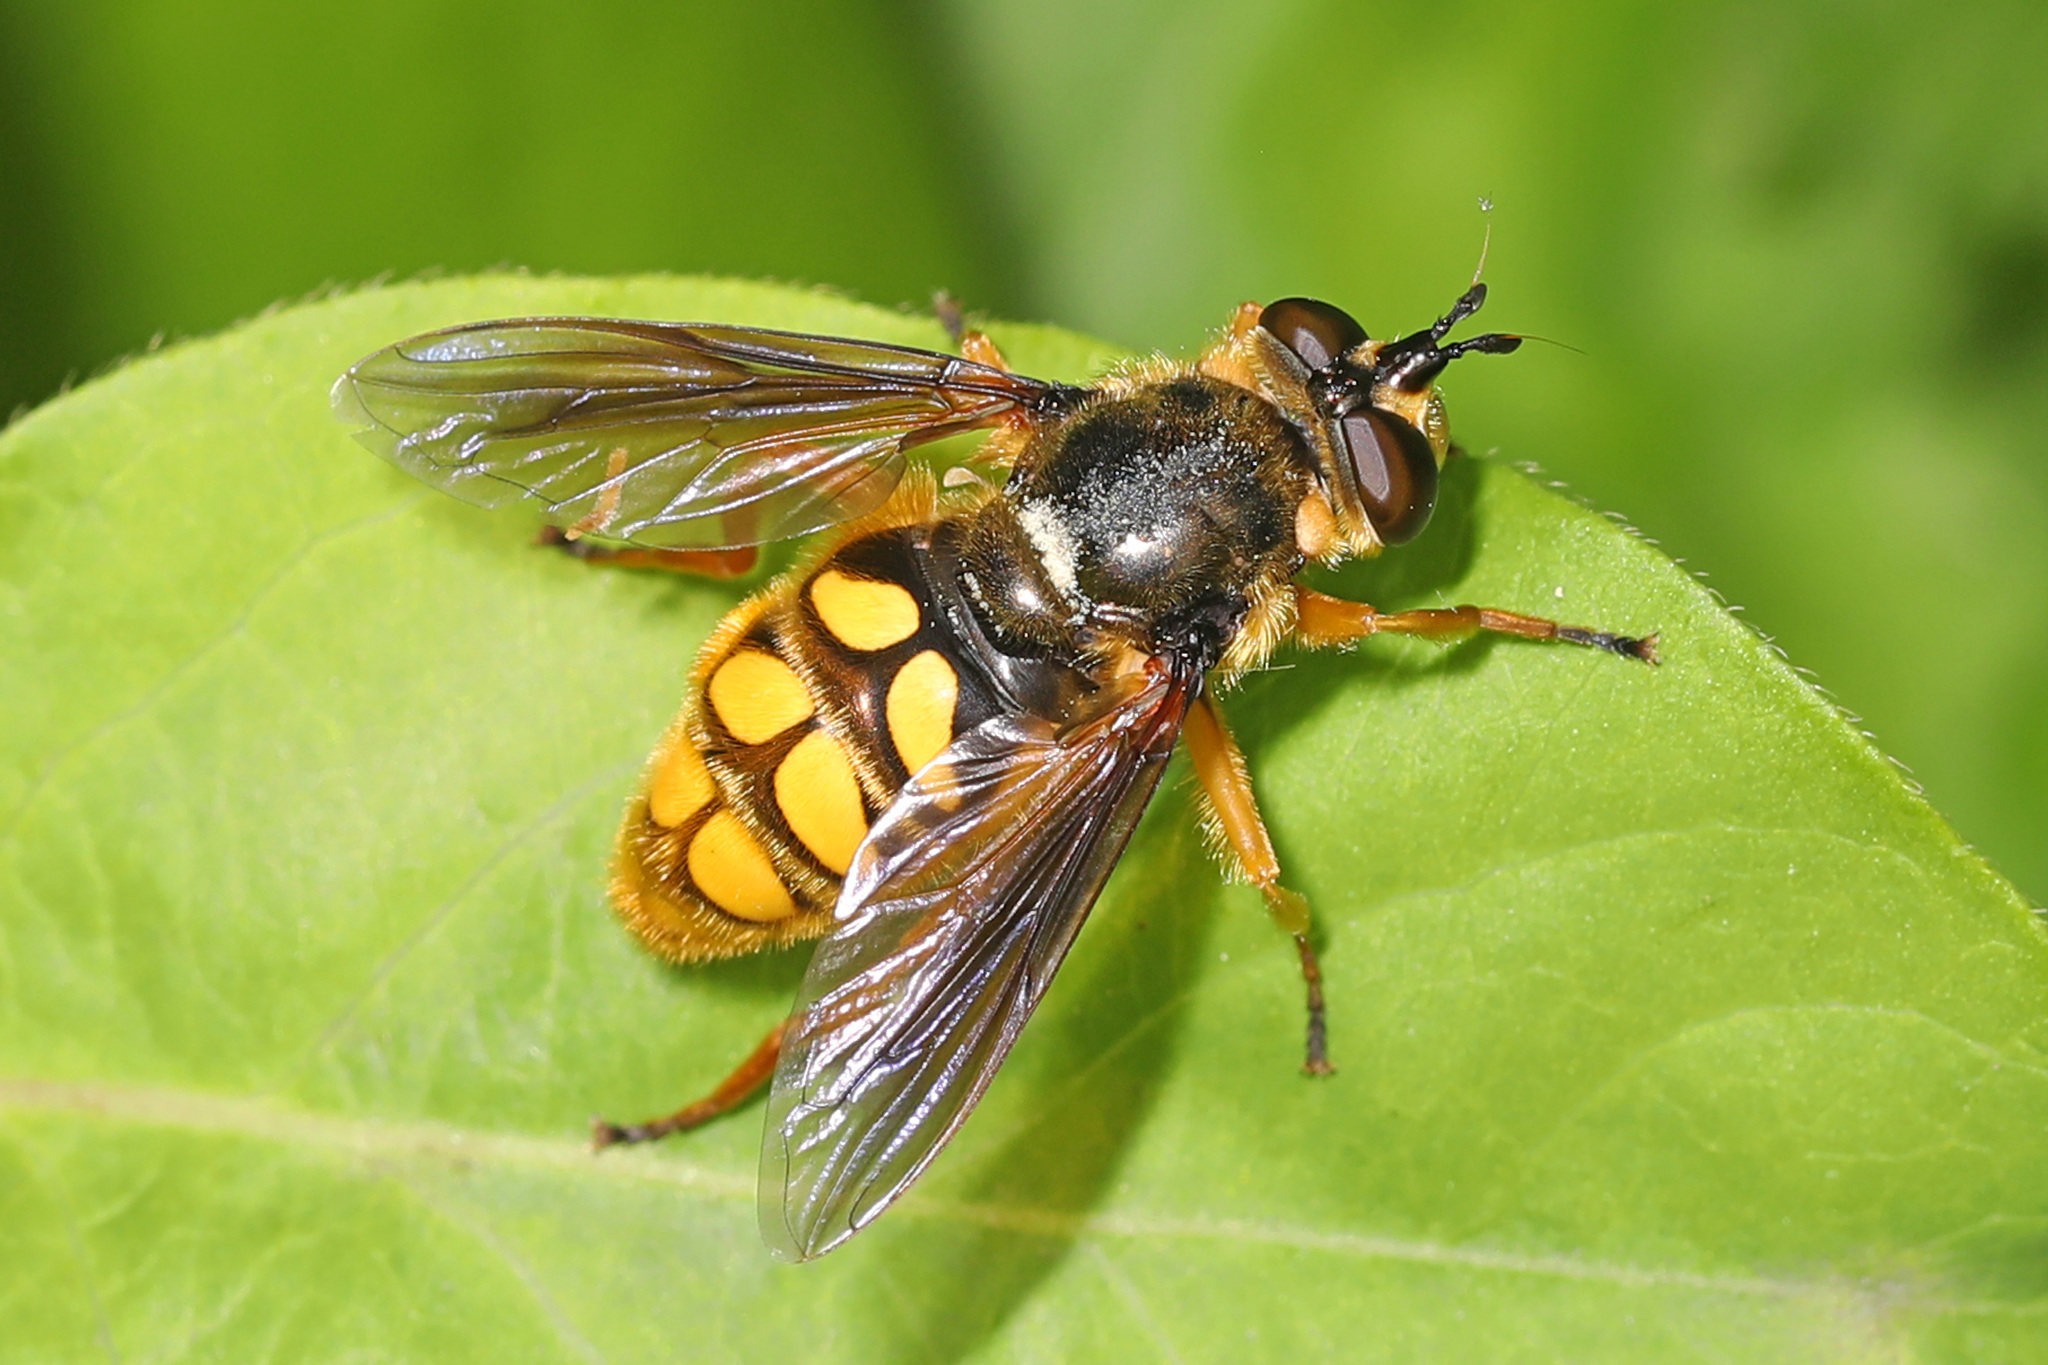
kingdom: Animalia
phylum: Arthropoda
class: Insecta
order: Diptera
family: Syrphidae
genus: Somula
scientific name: Somula decora
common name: Spotted wood fly
